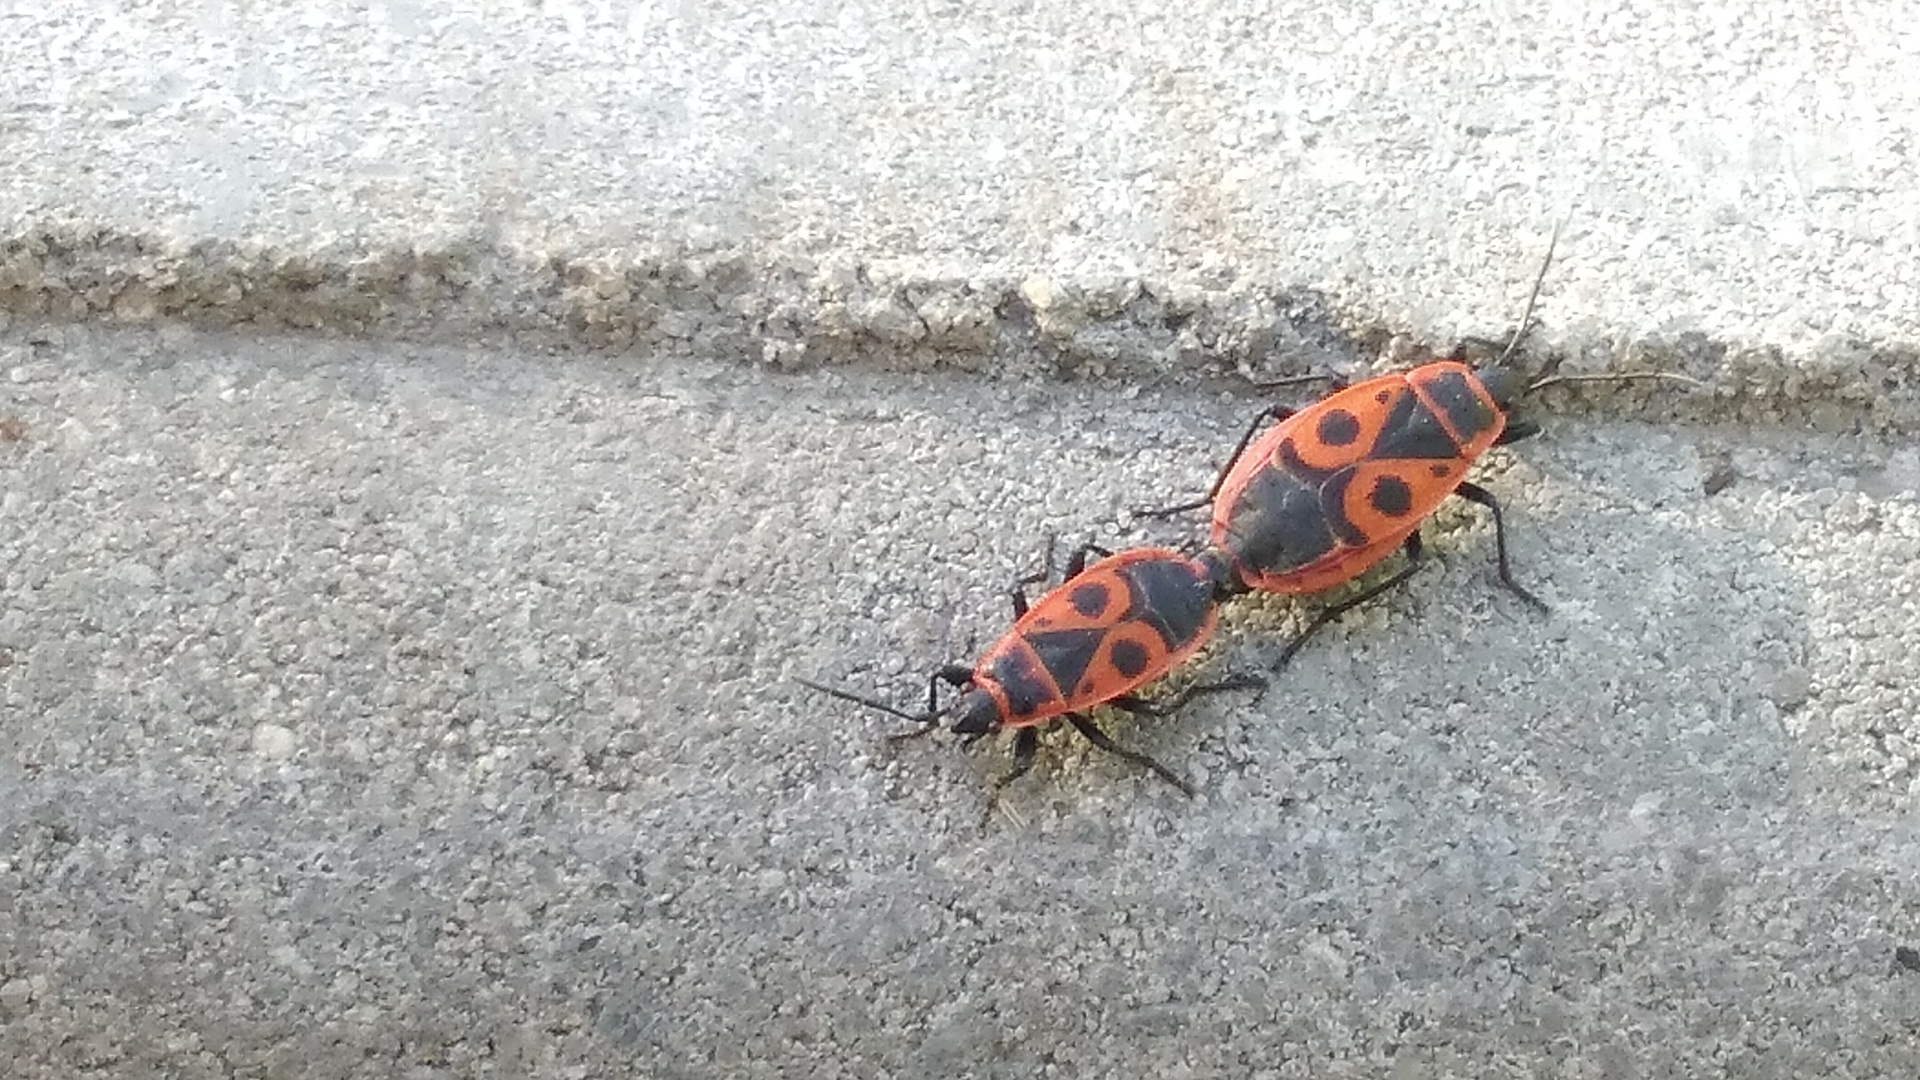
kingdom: Animalia
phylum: Arthropoda
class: Insecta
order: Hemiptera
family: Pyrrhocoridae
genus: Pyrrhocoris
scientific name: Pyrrhocoris apterus
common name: Firebug
